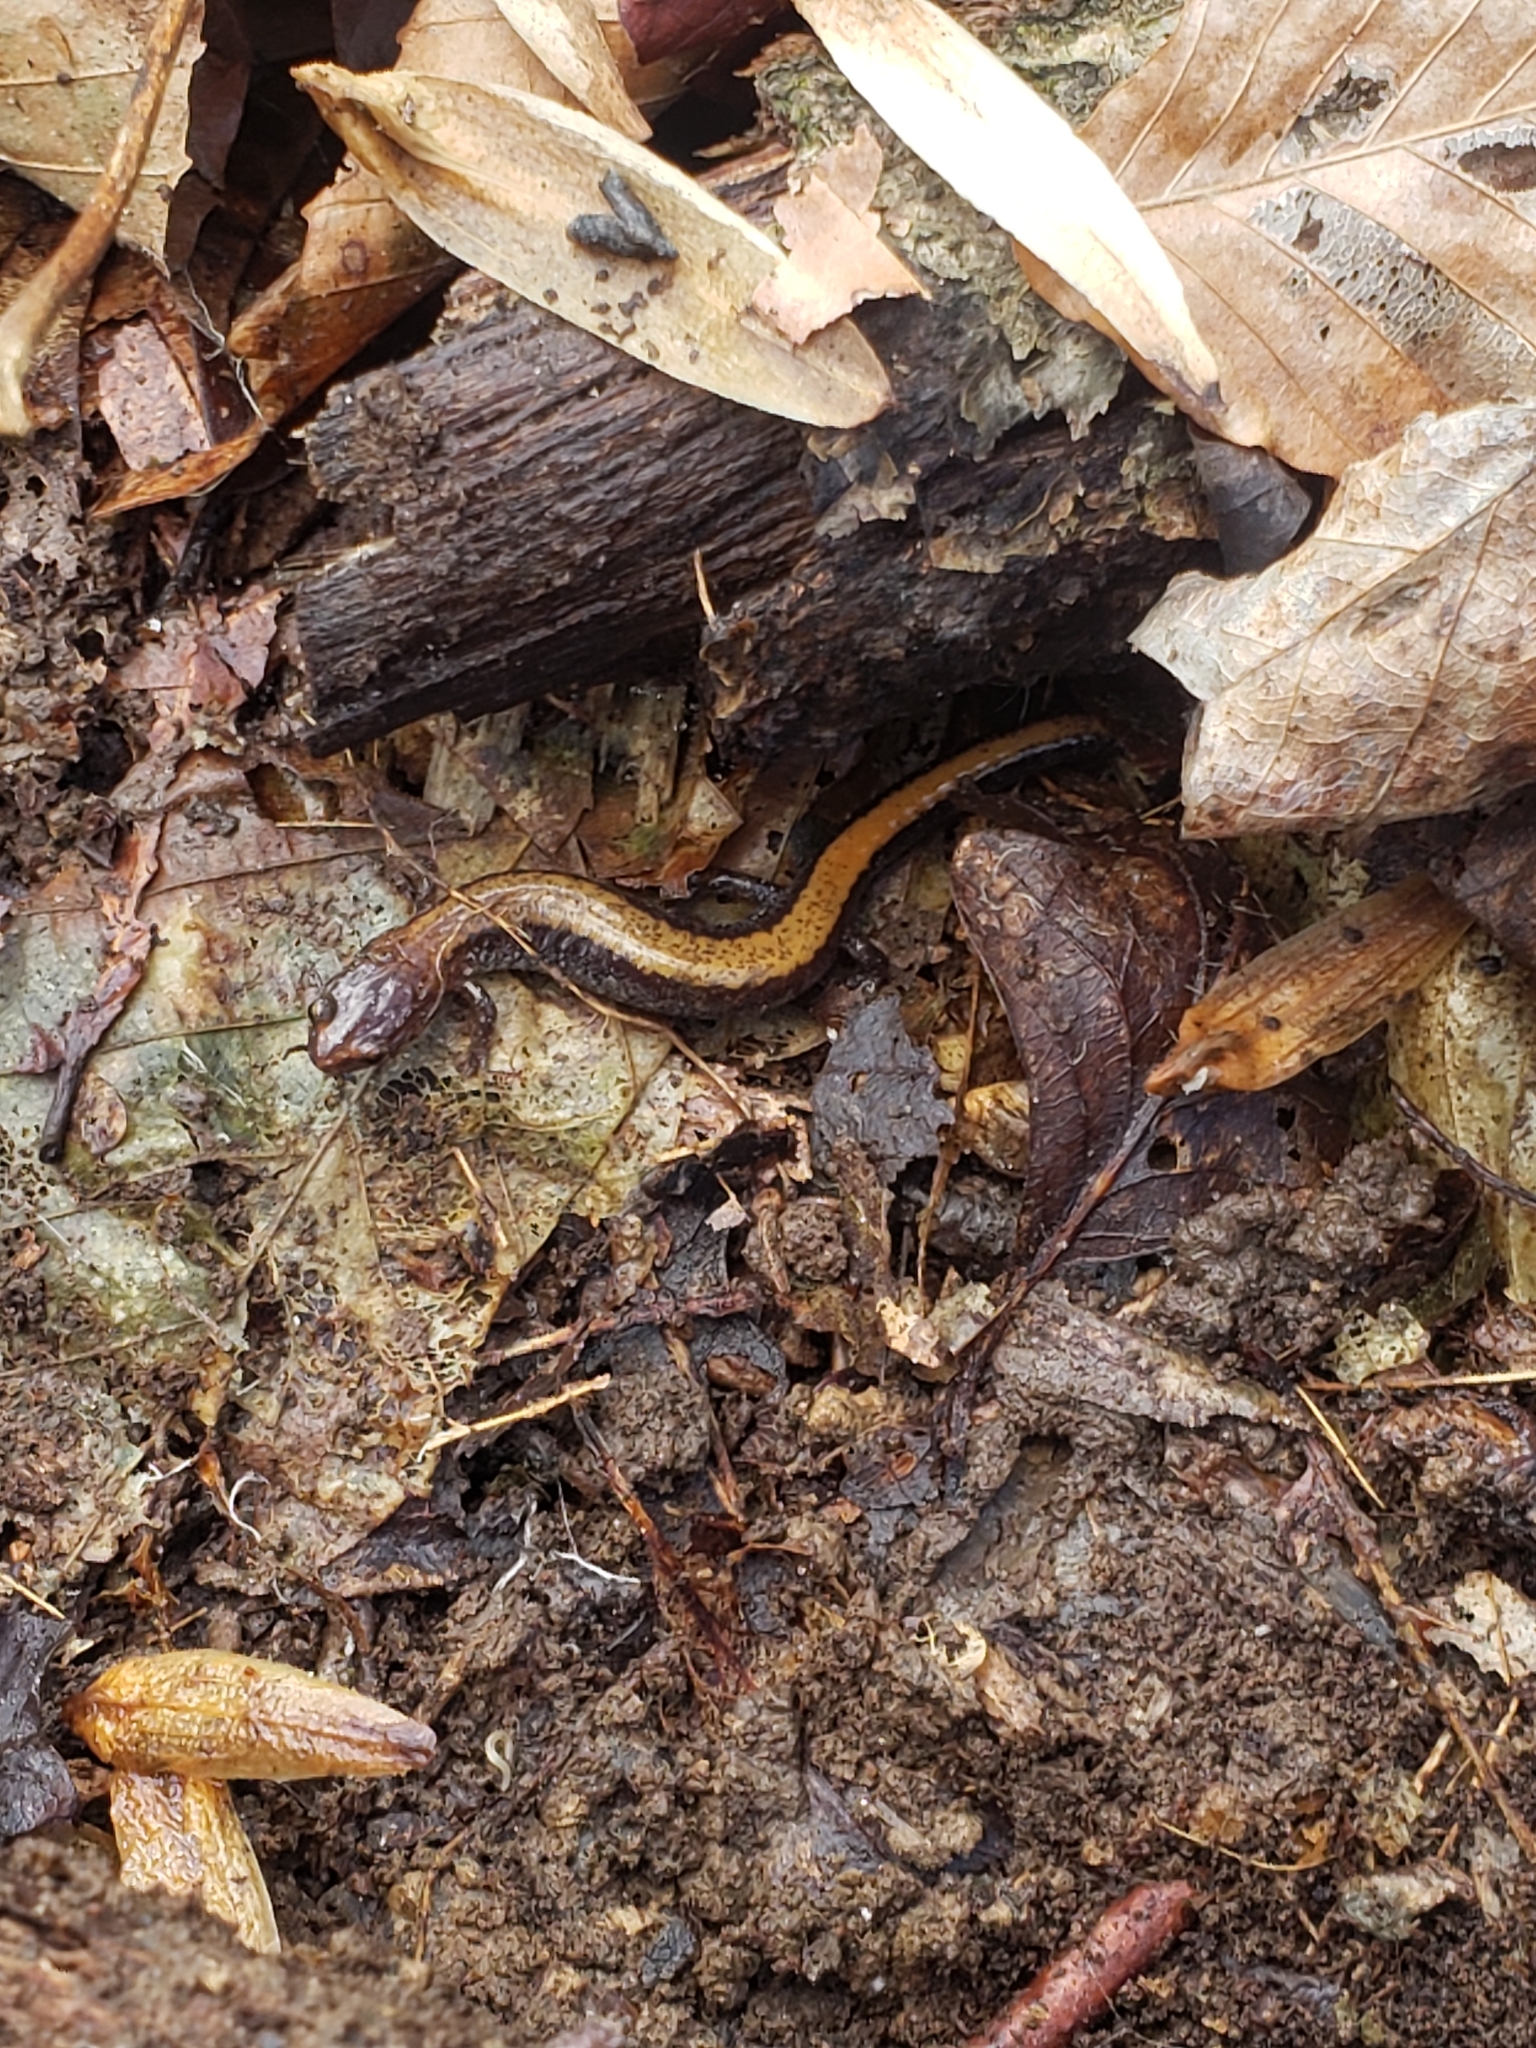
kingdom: Animalia
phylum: Chordata
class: Amphibia
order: Caudata
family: Plethodontidae
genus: Plethodon
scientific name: Plethodon cinereus
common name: Redback salamander
